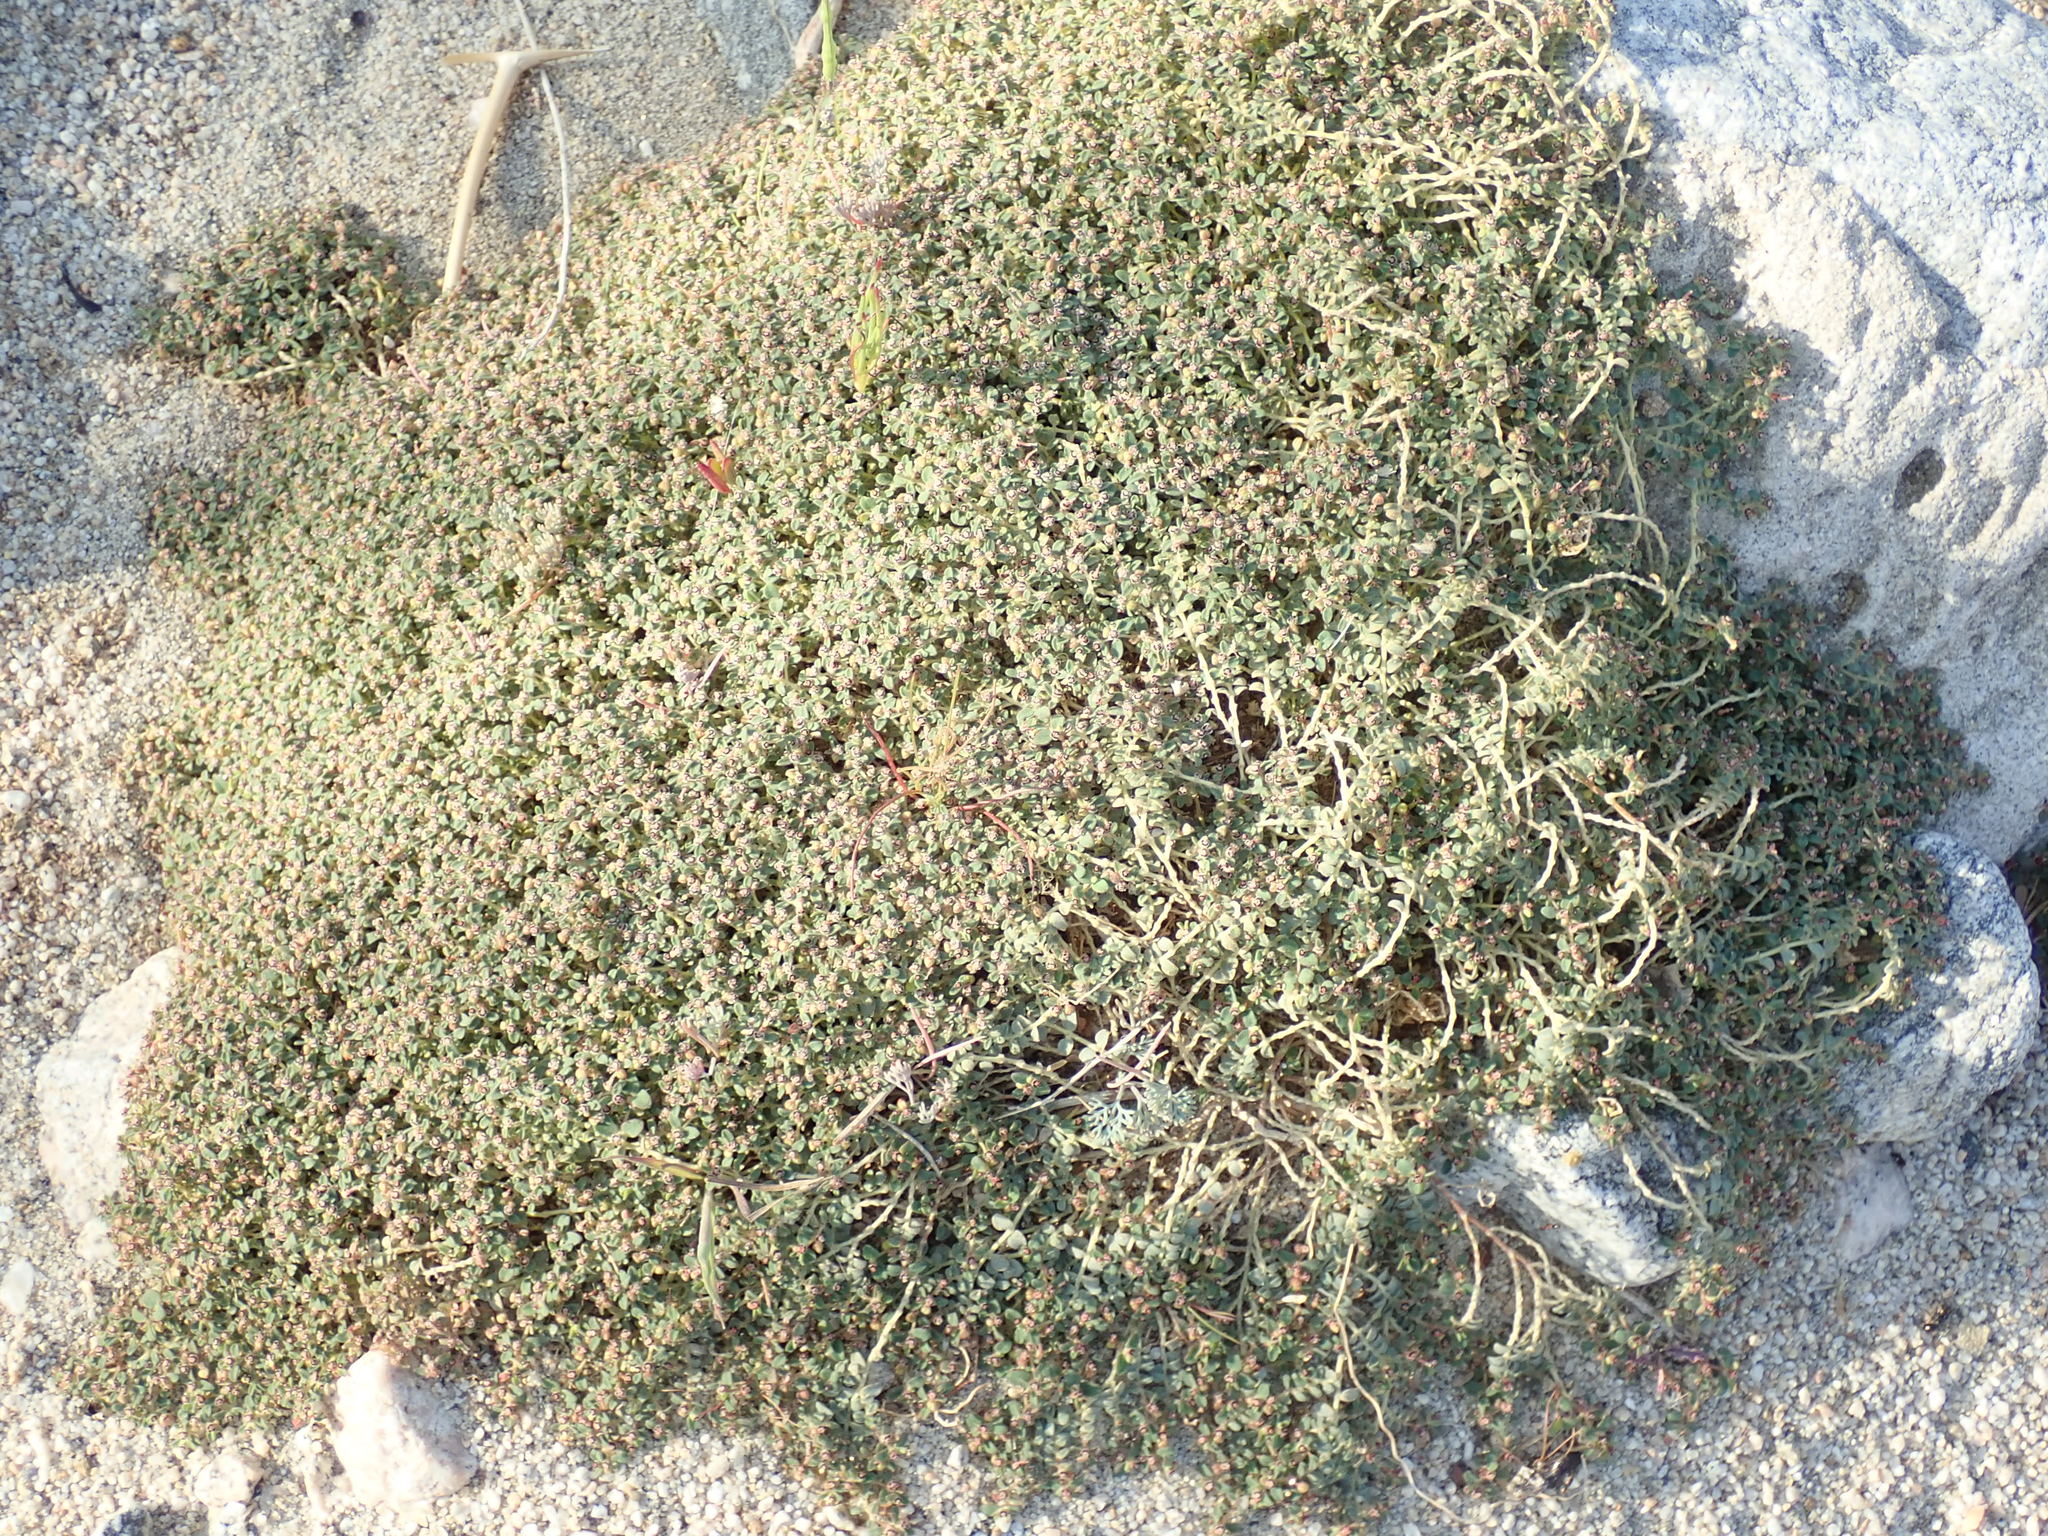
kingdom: Plantae
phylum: Tracheophyta
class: Magnoliopsida
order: Malpighiales
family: Euphorbiaceae
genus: Euphorbia
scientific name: Euphorbia polycarpa
